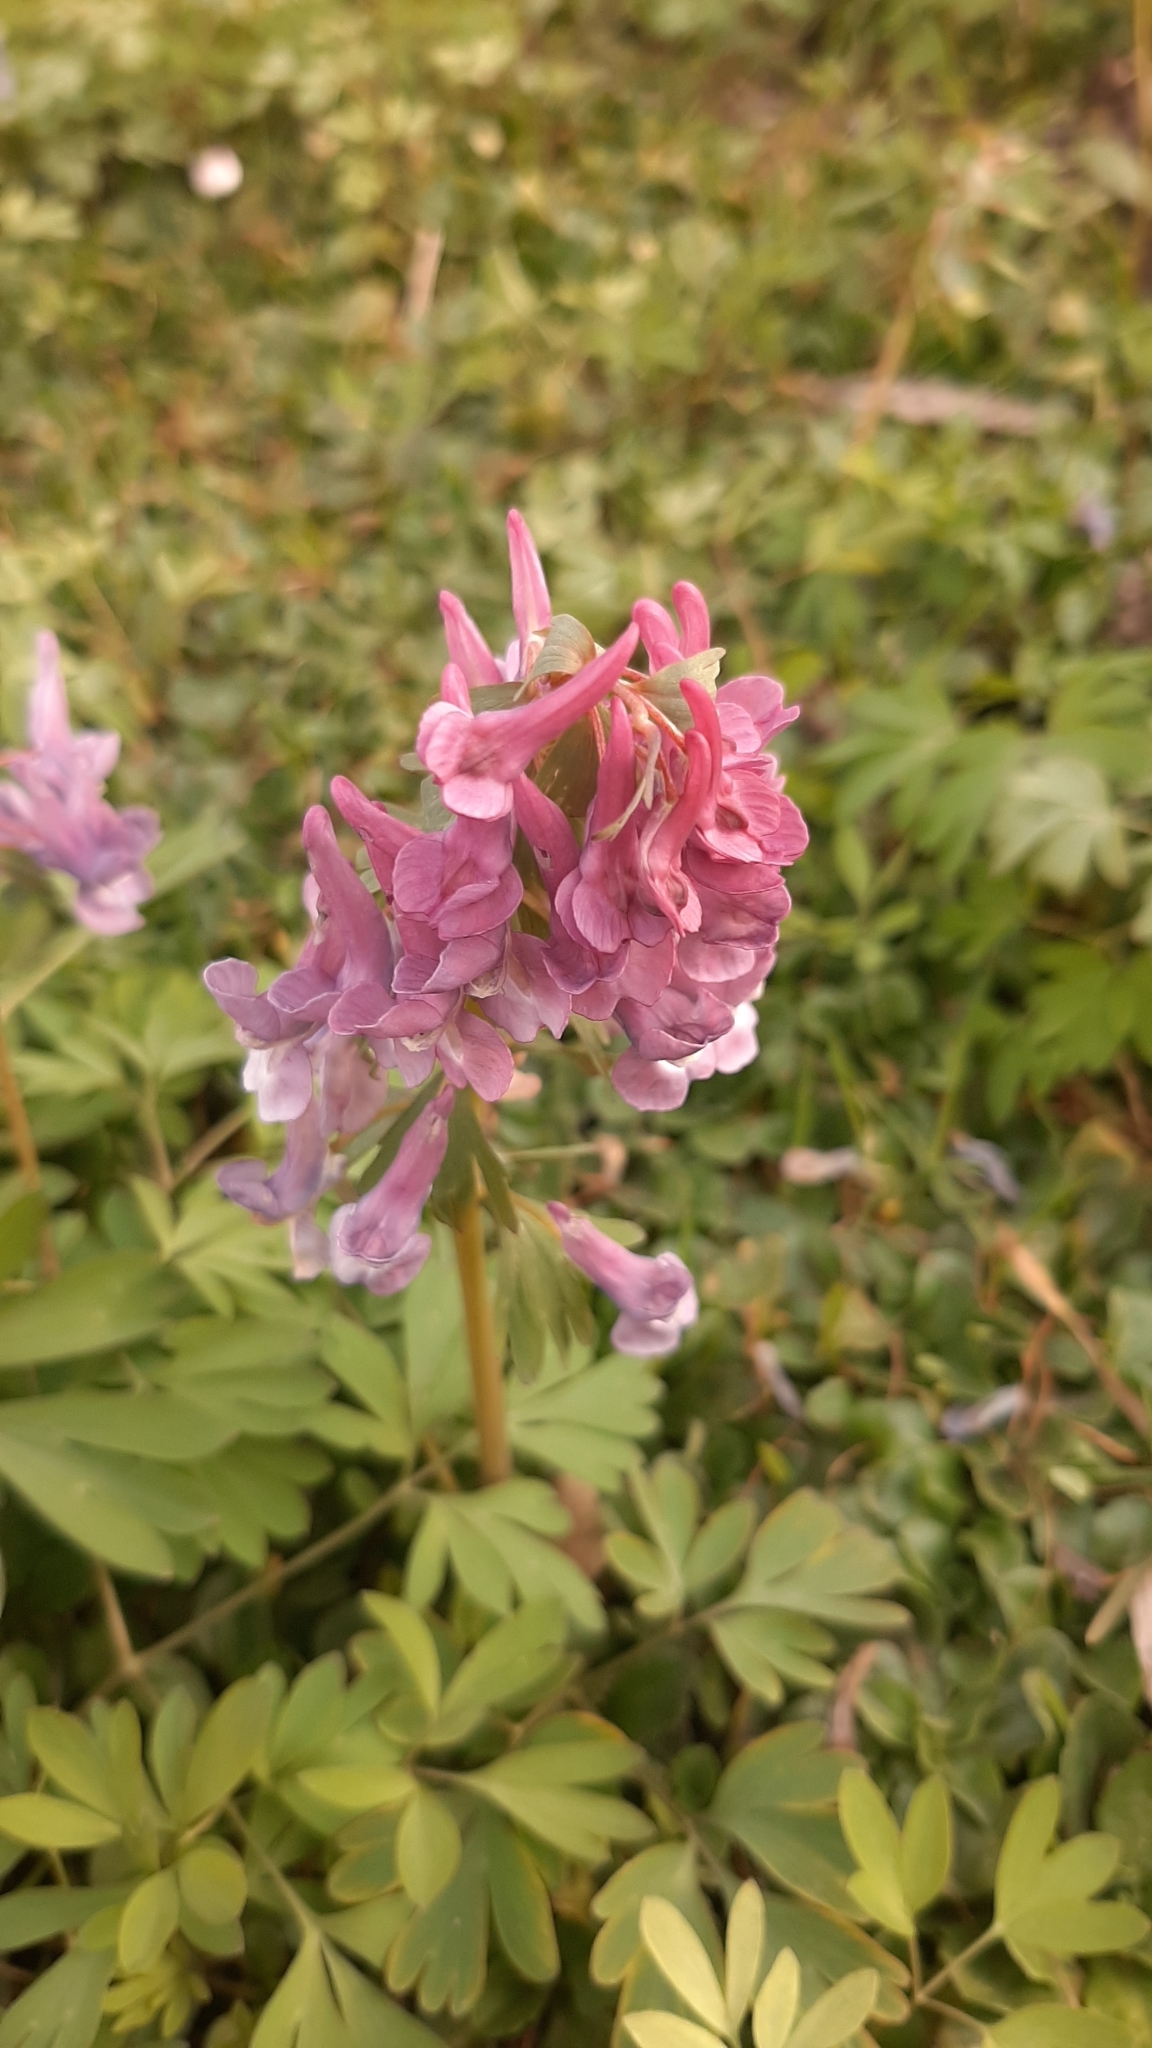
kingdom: Plantae
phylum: Tracheophyta
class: Magnoliopsida
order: Ranunculales
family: Papaveraceae
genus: Corydalis
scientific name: Corydalis solida
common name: Bird-in-a-bush
